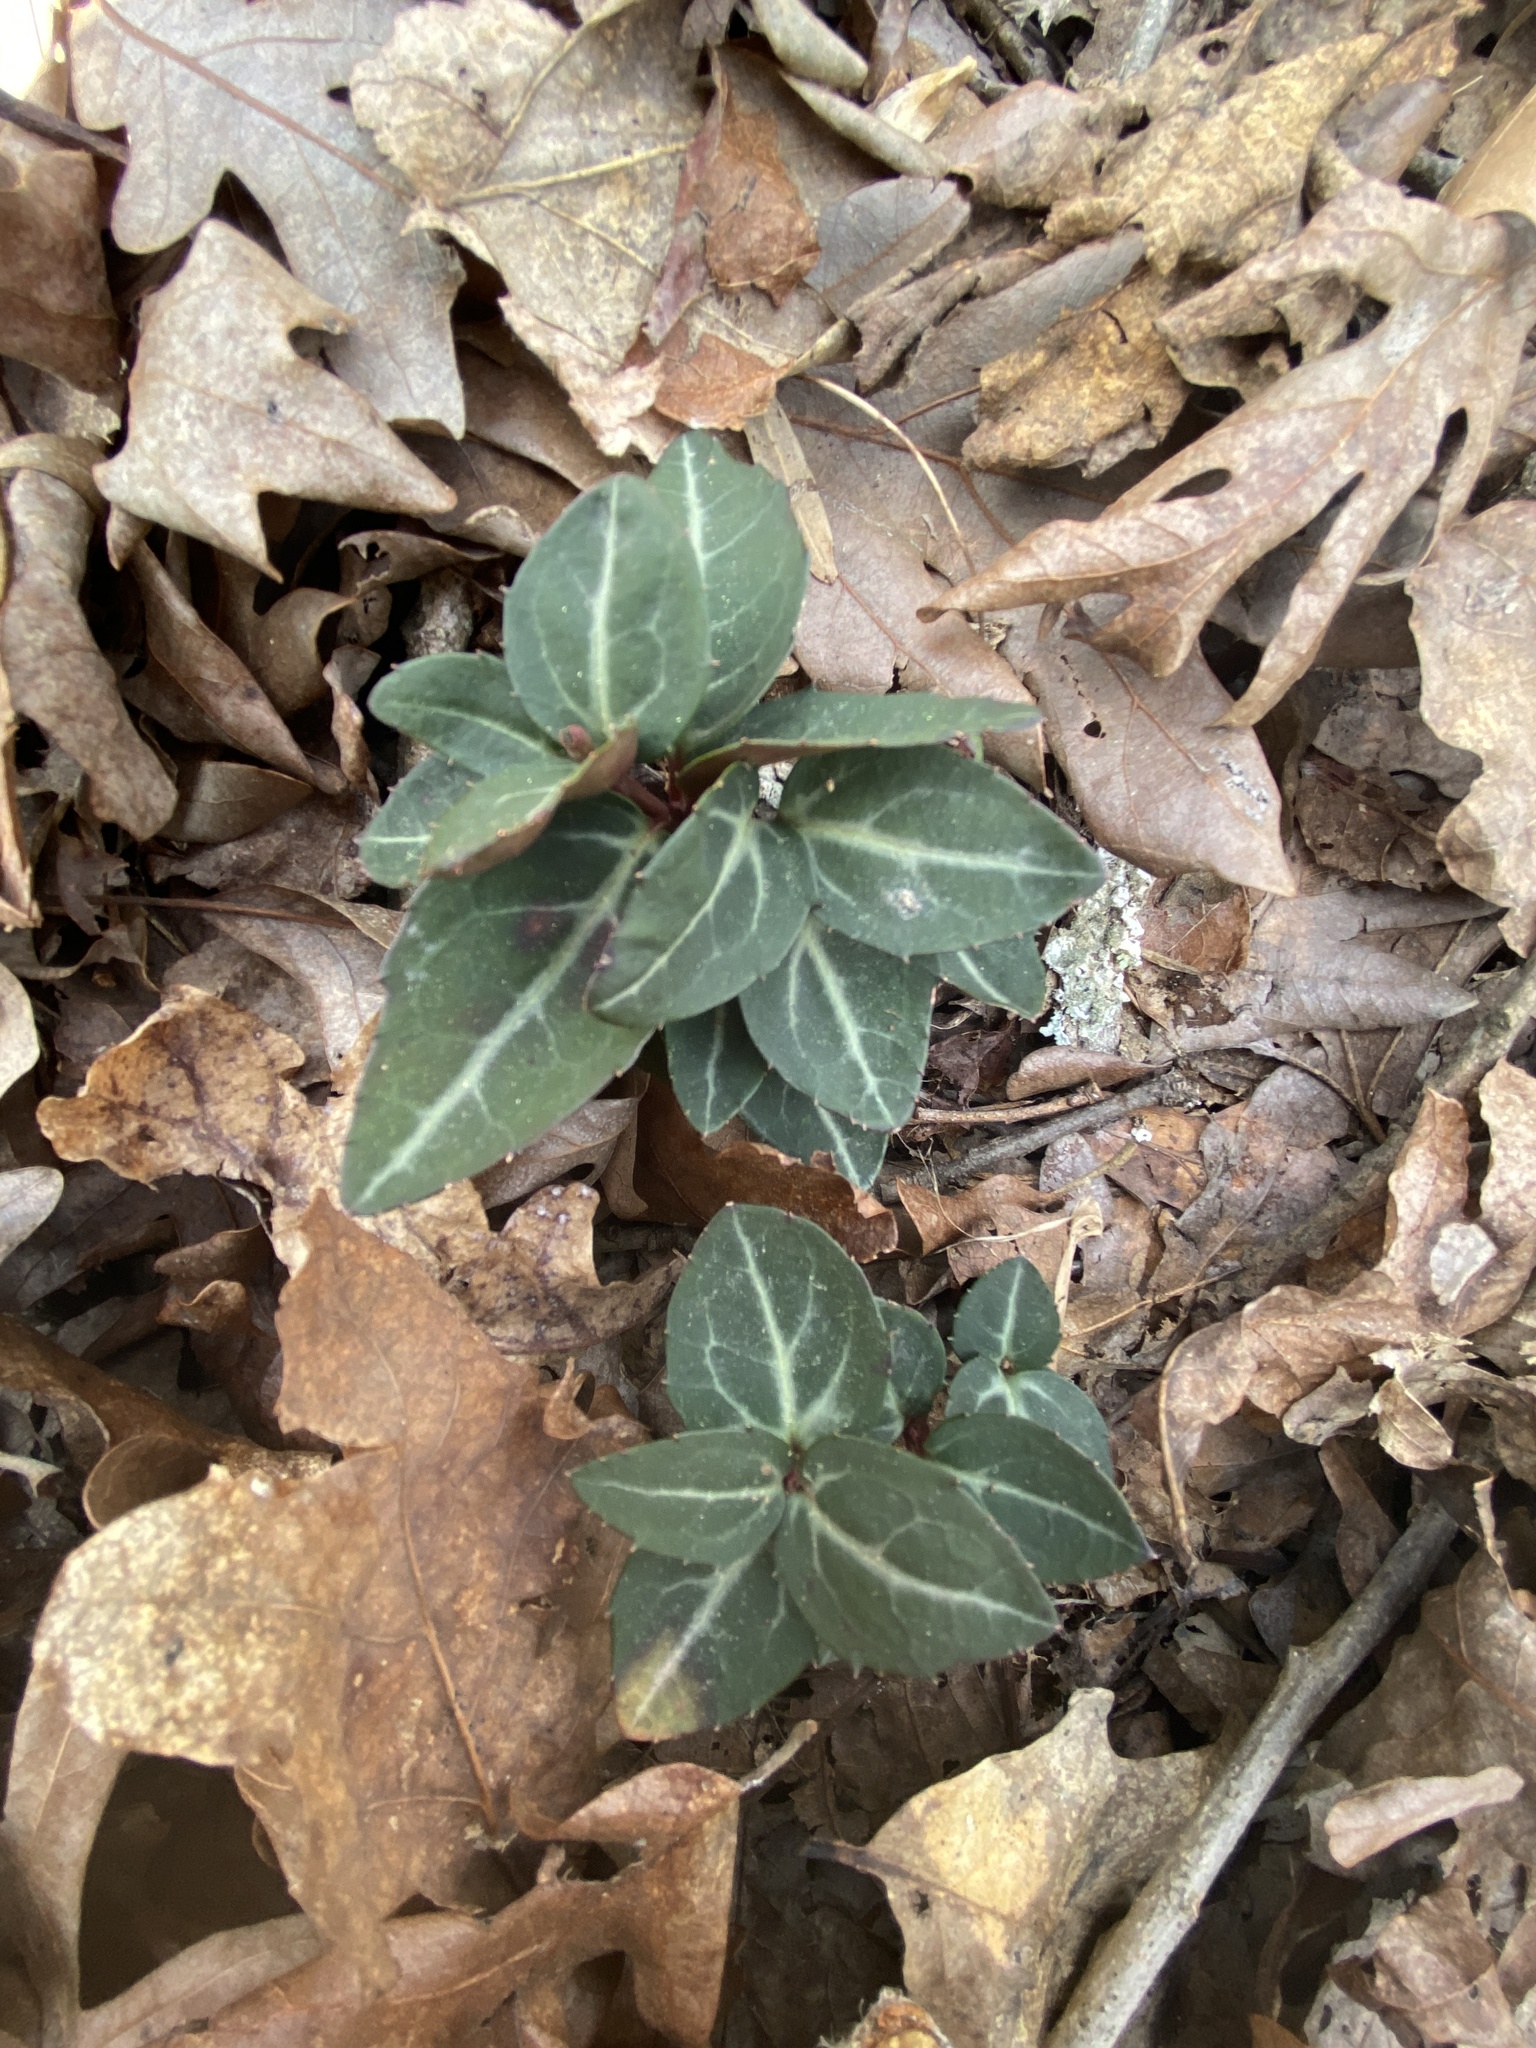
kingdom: Plantae
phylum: Tracheophyta
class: Magnoliopsida
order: Ericales
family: Ericaceae
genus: Chimaphila
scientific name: Chimaphila maculata
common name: Spotted pipsissewa
